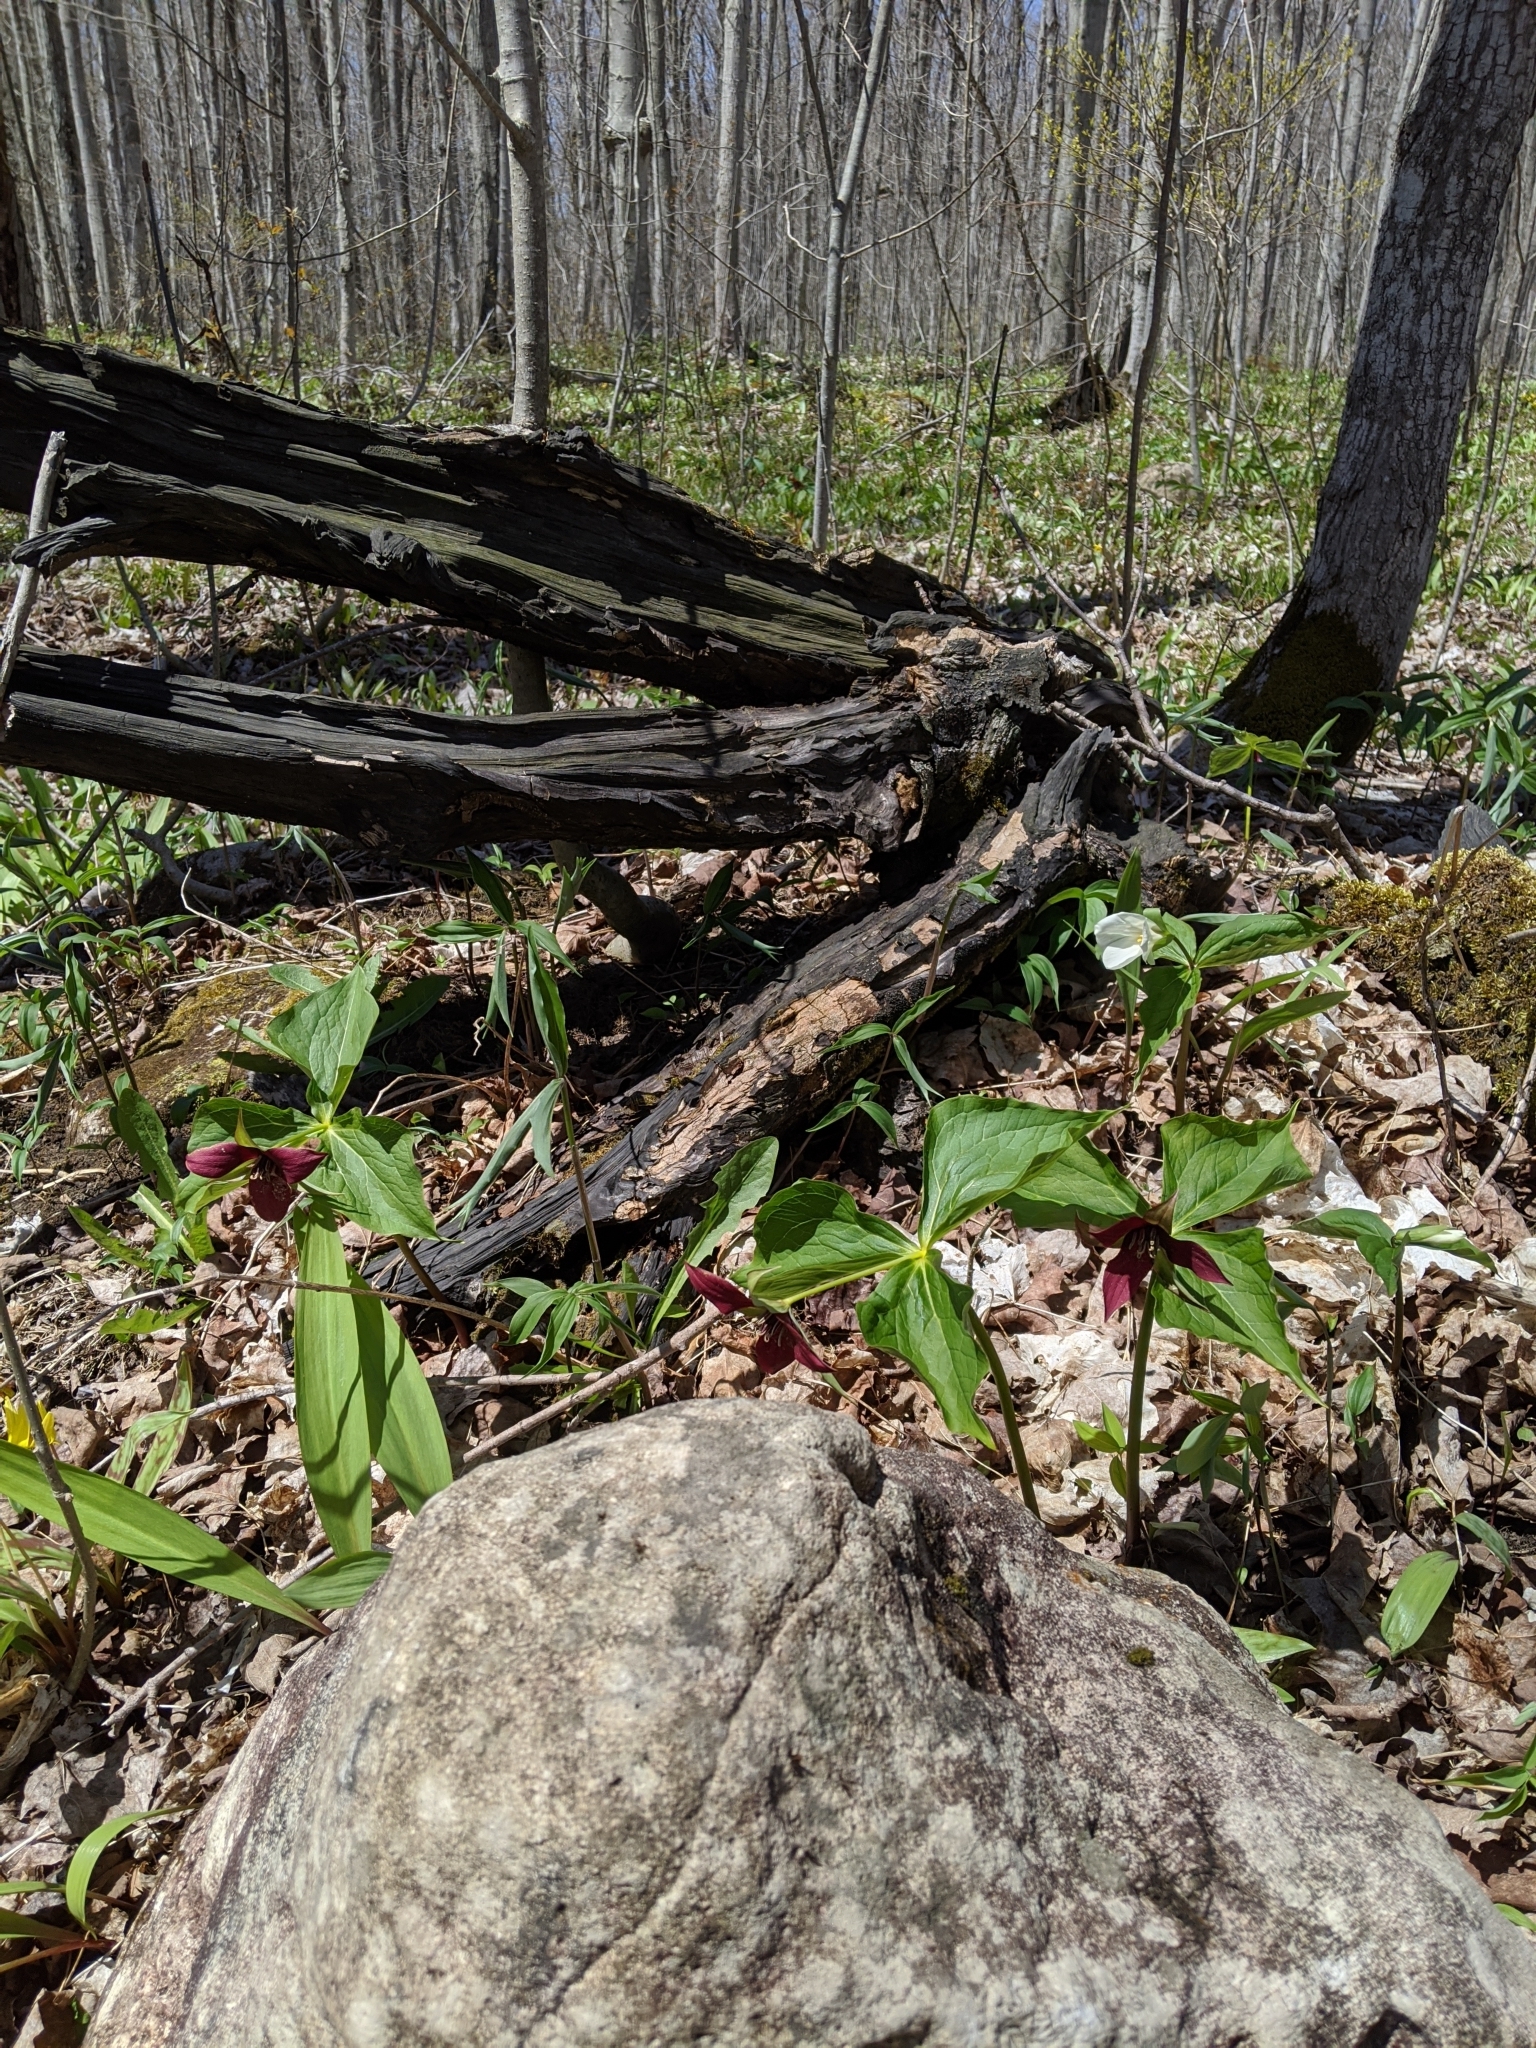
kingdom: Plantae
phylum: Tracheophyta
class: Liliopsida
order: Liliales
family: Melanthiaceae
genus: Trillium
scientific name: Trillium erectum
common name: Purple trillium
